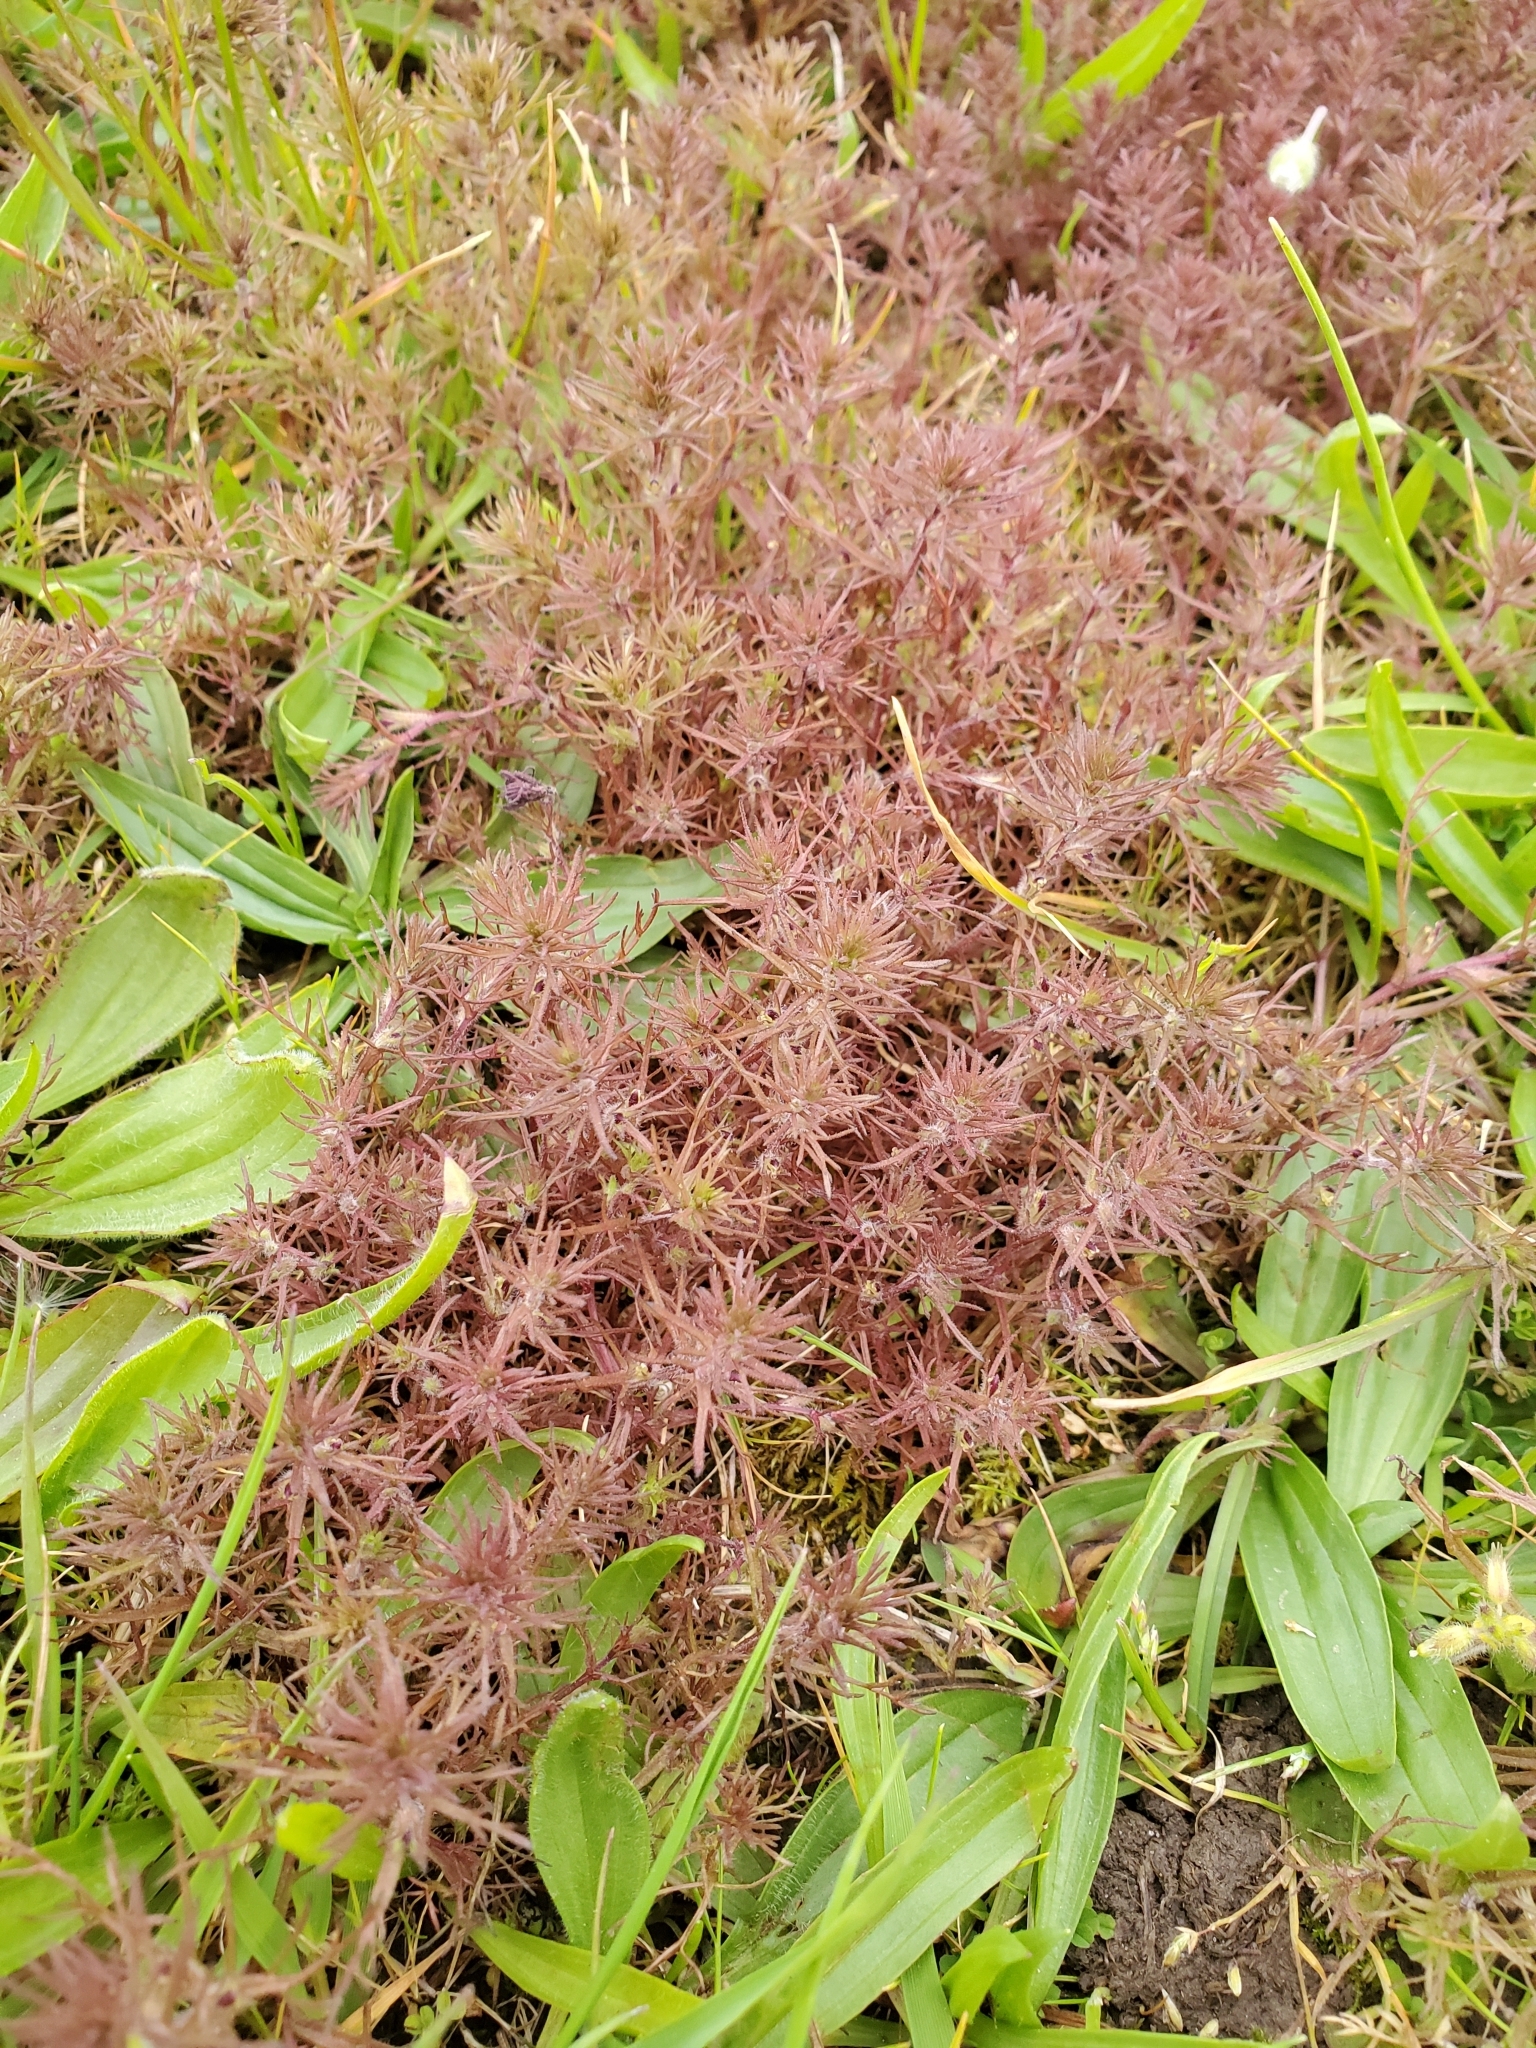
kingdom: Plantae
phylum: Tracheophyta
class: Magnoliopsida
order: Lamiales
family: Orobanchaceae
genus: Triphysaria
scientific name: Triphysaria pusilla
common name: Dwarf false owl-clover
